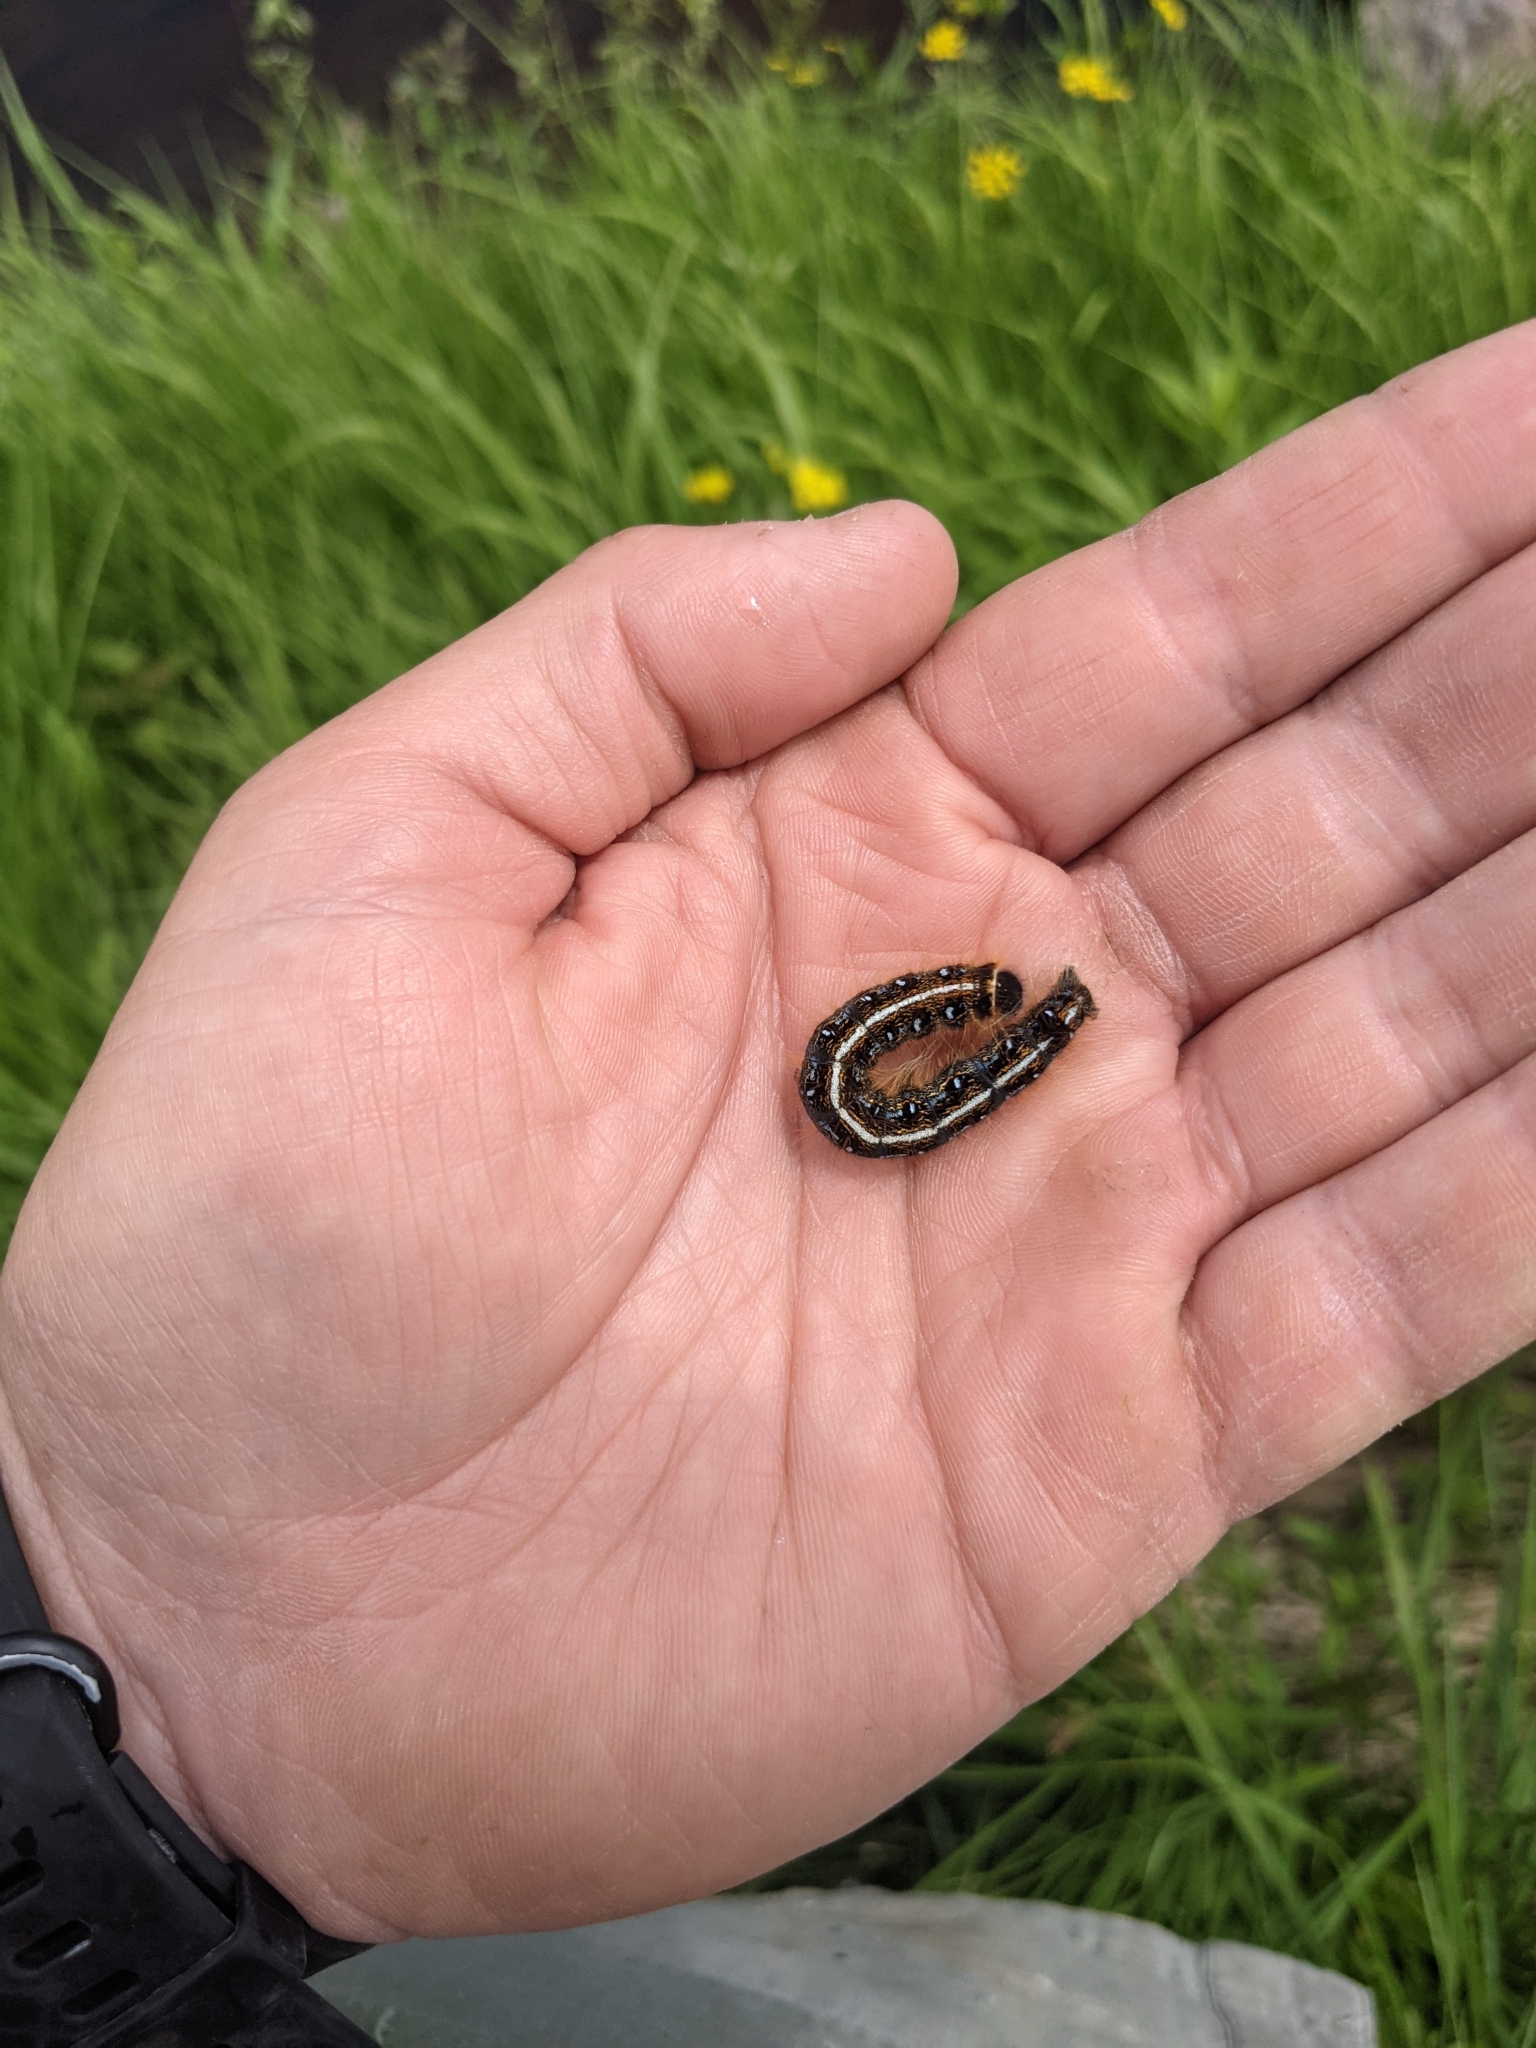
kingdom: Animalia
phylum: Arthropoda
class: Insecta
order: Lepidoptera
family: Lasiocampidae
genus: Malacosoma
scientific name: Malacosoma americana
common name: Eastern tent caterpillar moth
